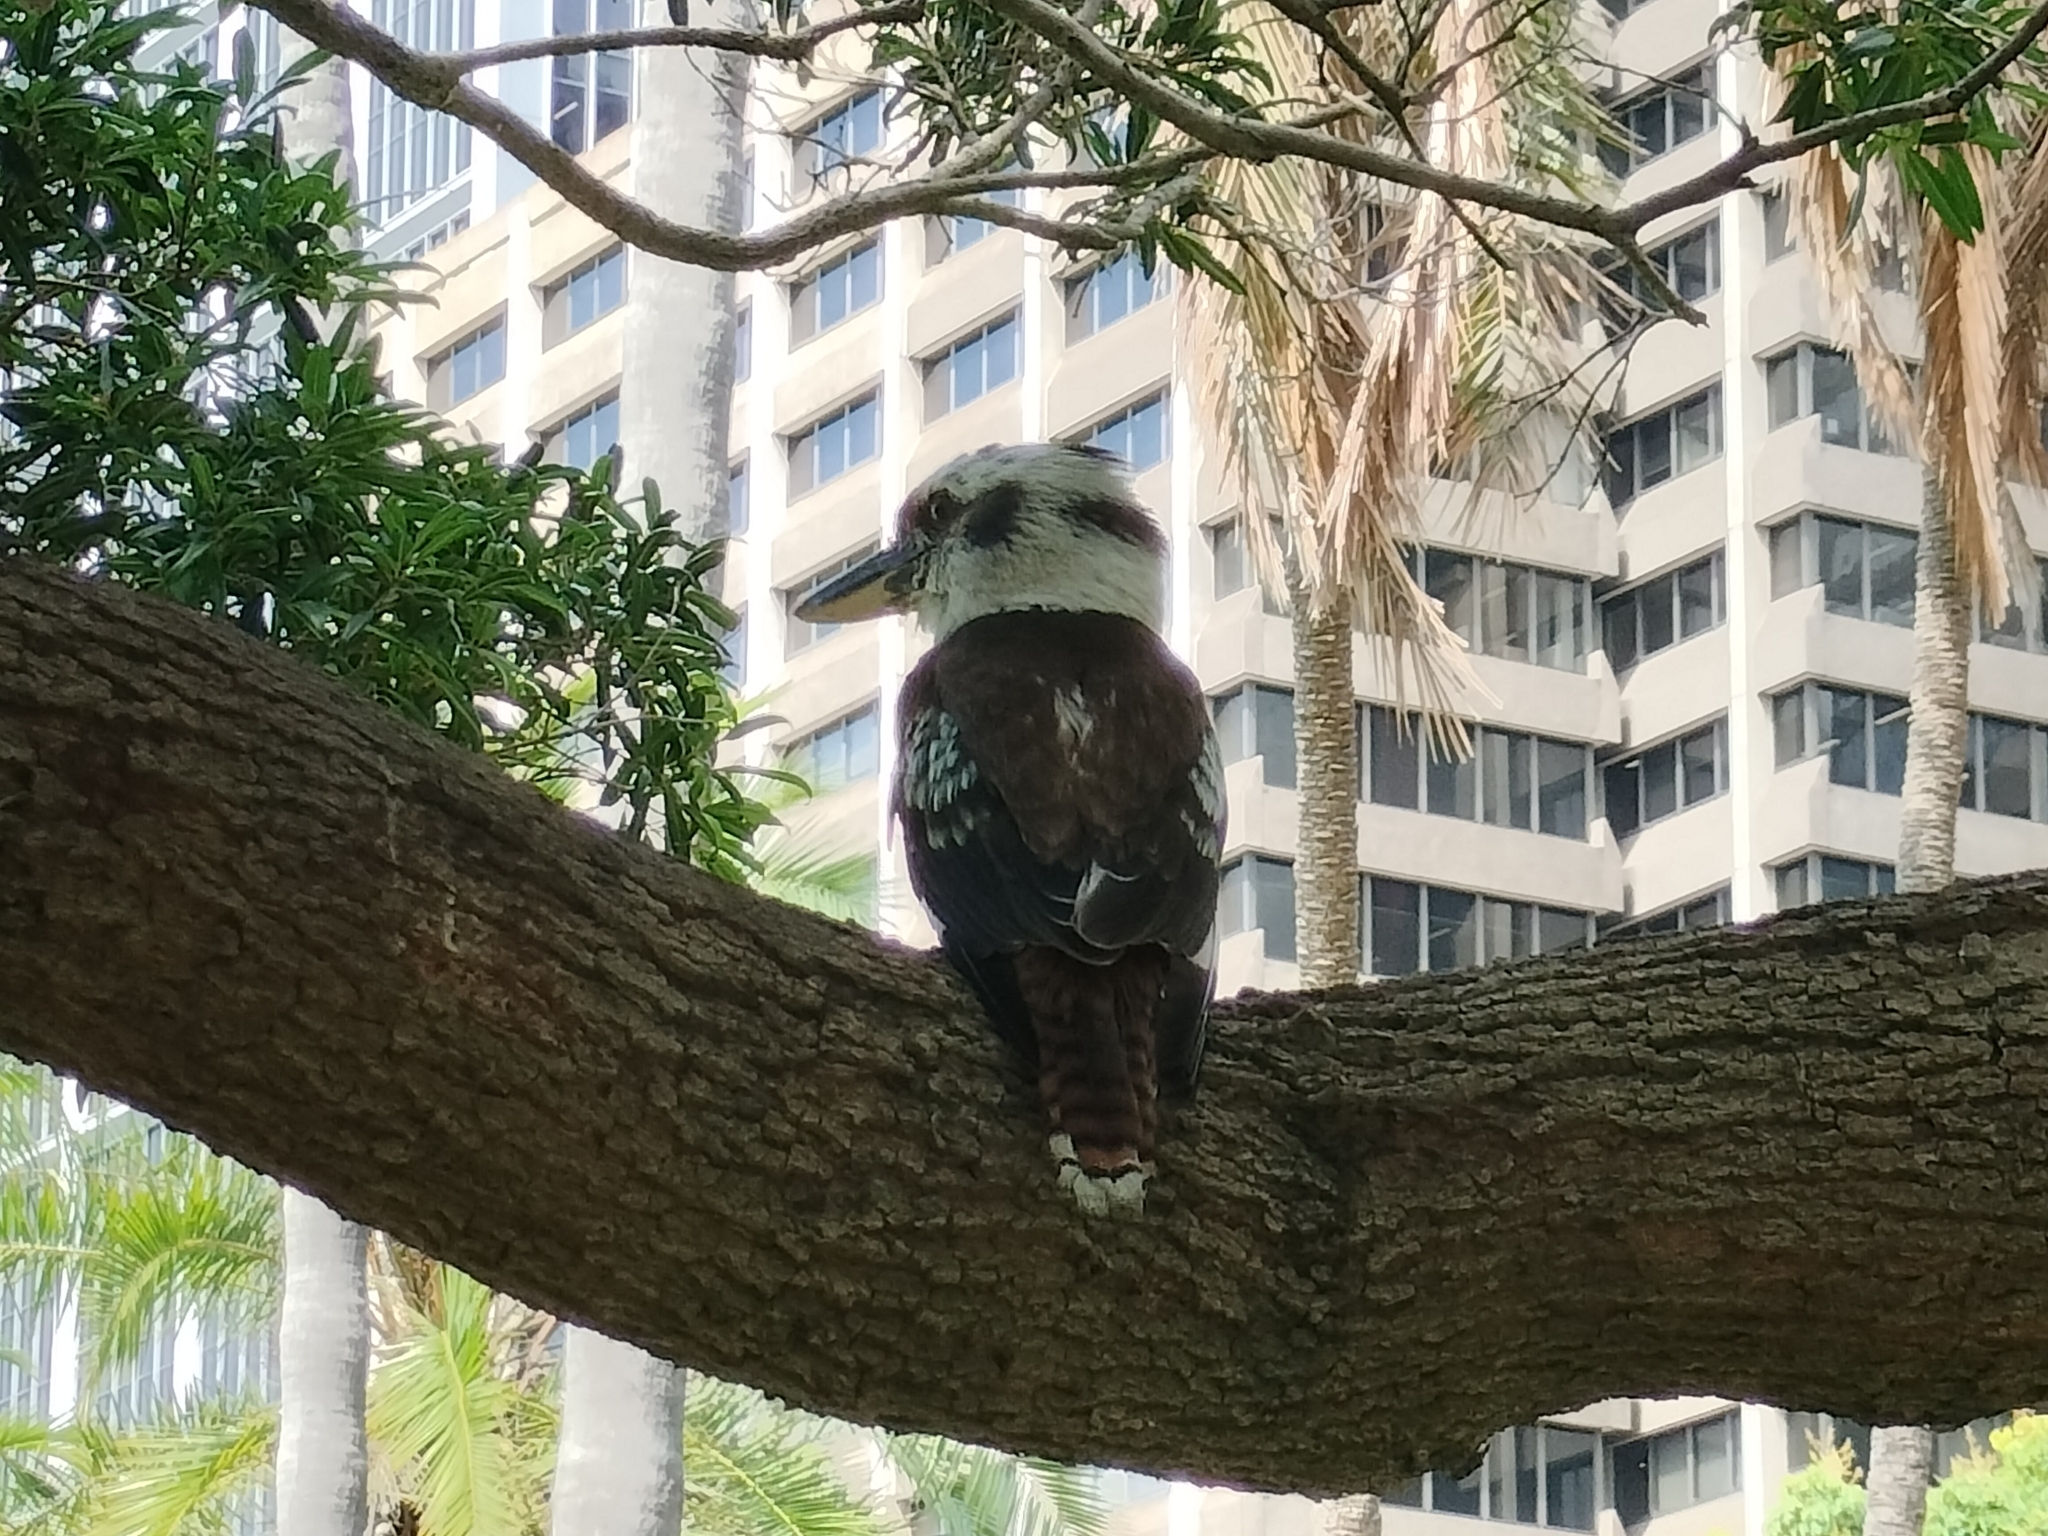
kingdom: Animalia
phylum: Chordata
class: Aves
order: Coraciiformes
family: Alcedinidae
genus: Dacelo
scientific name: Dacelo novaeguineae
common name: Laughing kookaburra
